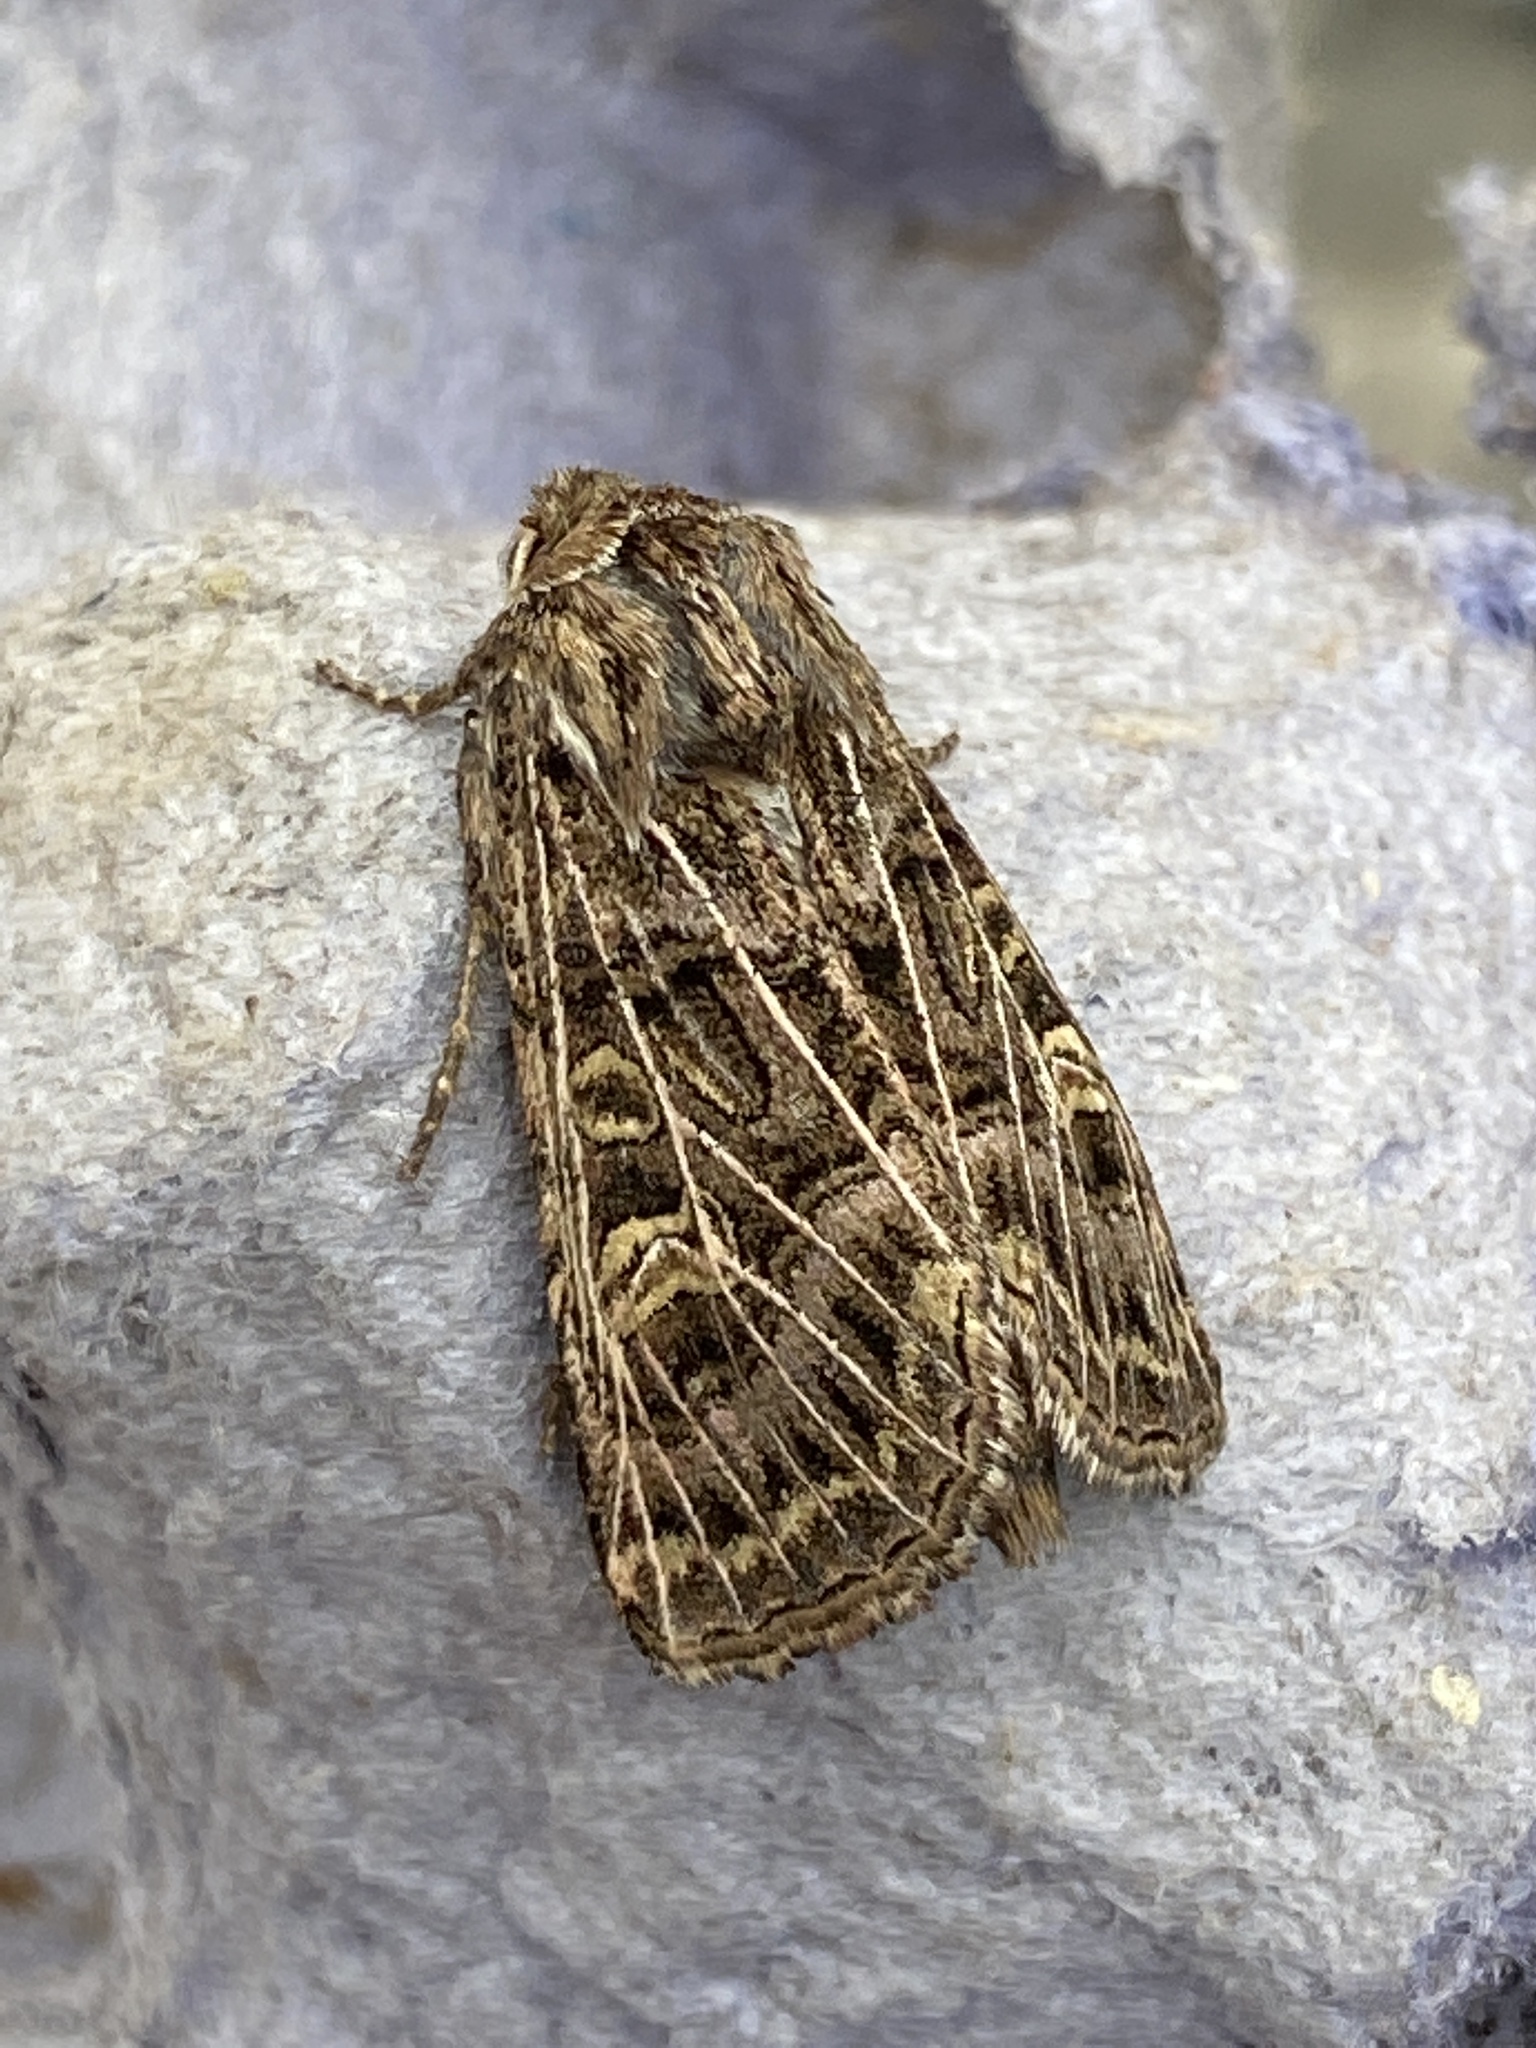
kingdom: Animalia
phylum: Arthropoda
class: Insecta
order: Lepidoptera
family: Noctuidae
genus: Tholera
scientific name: Tholera decimalis
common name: Feathered gothic
